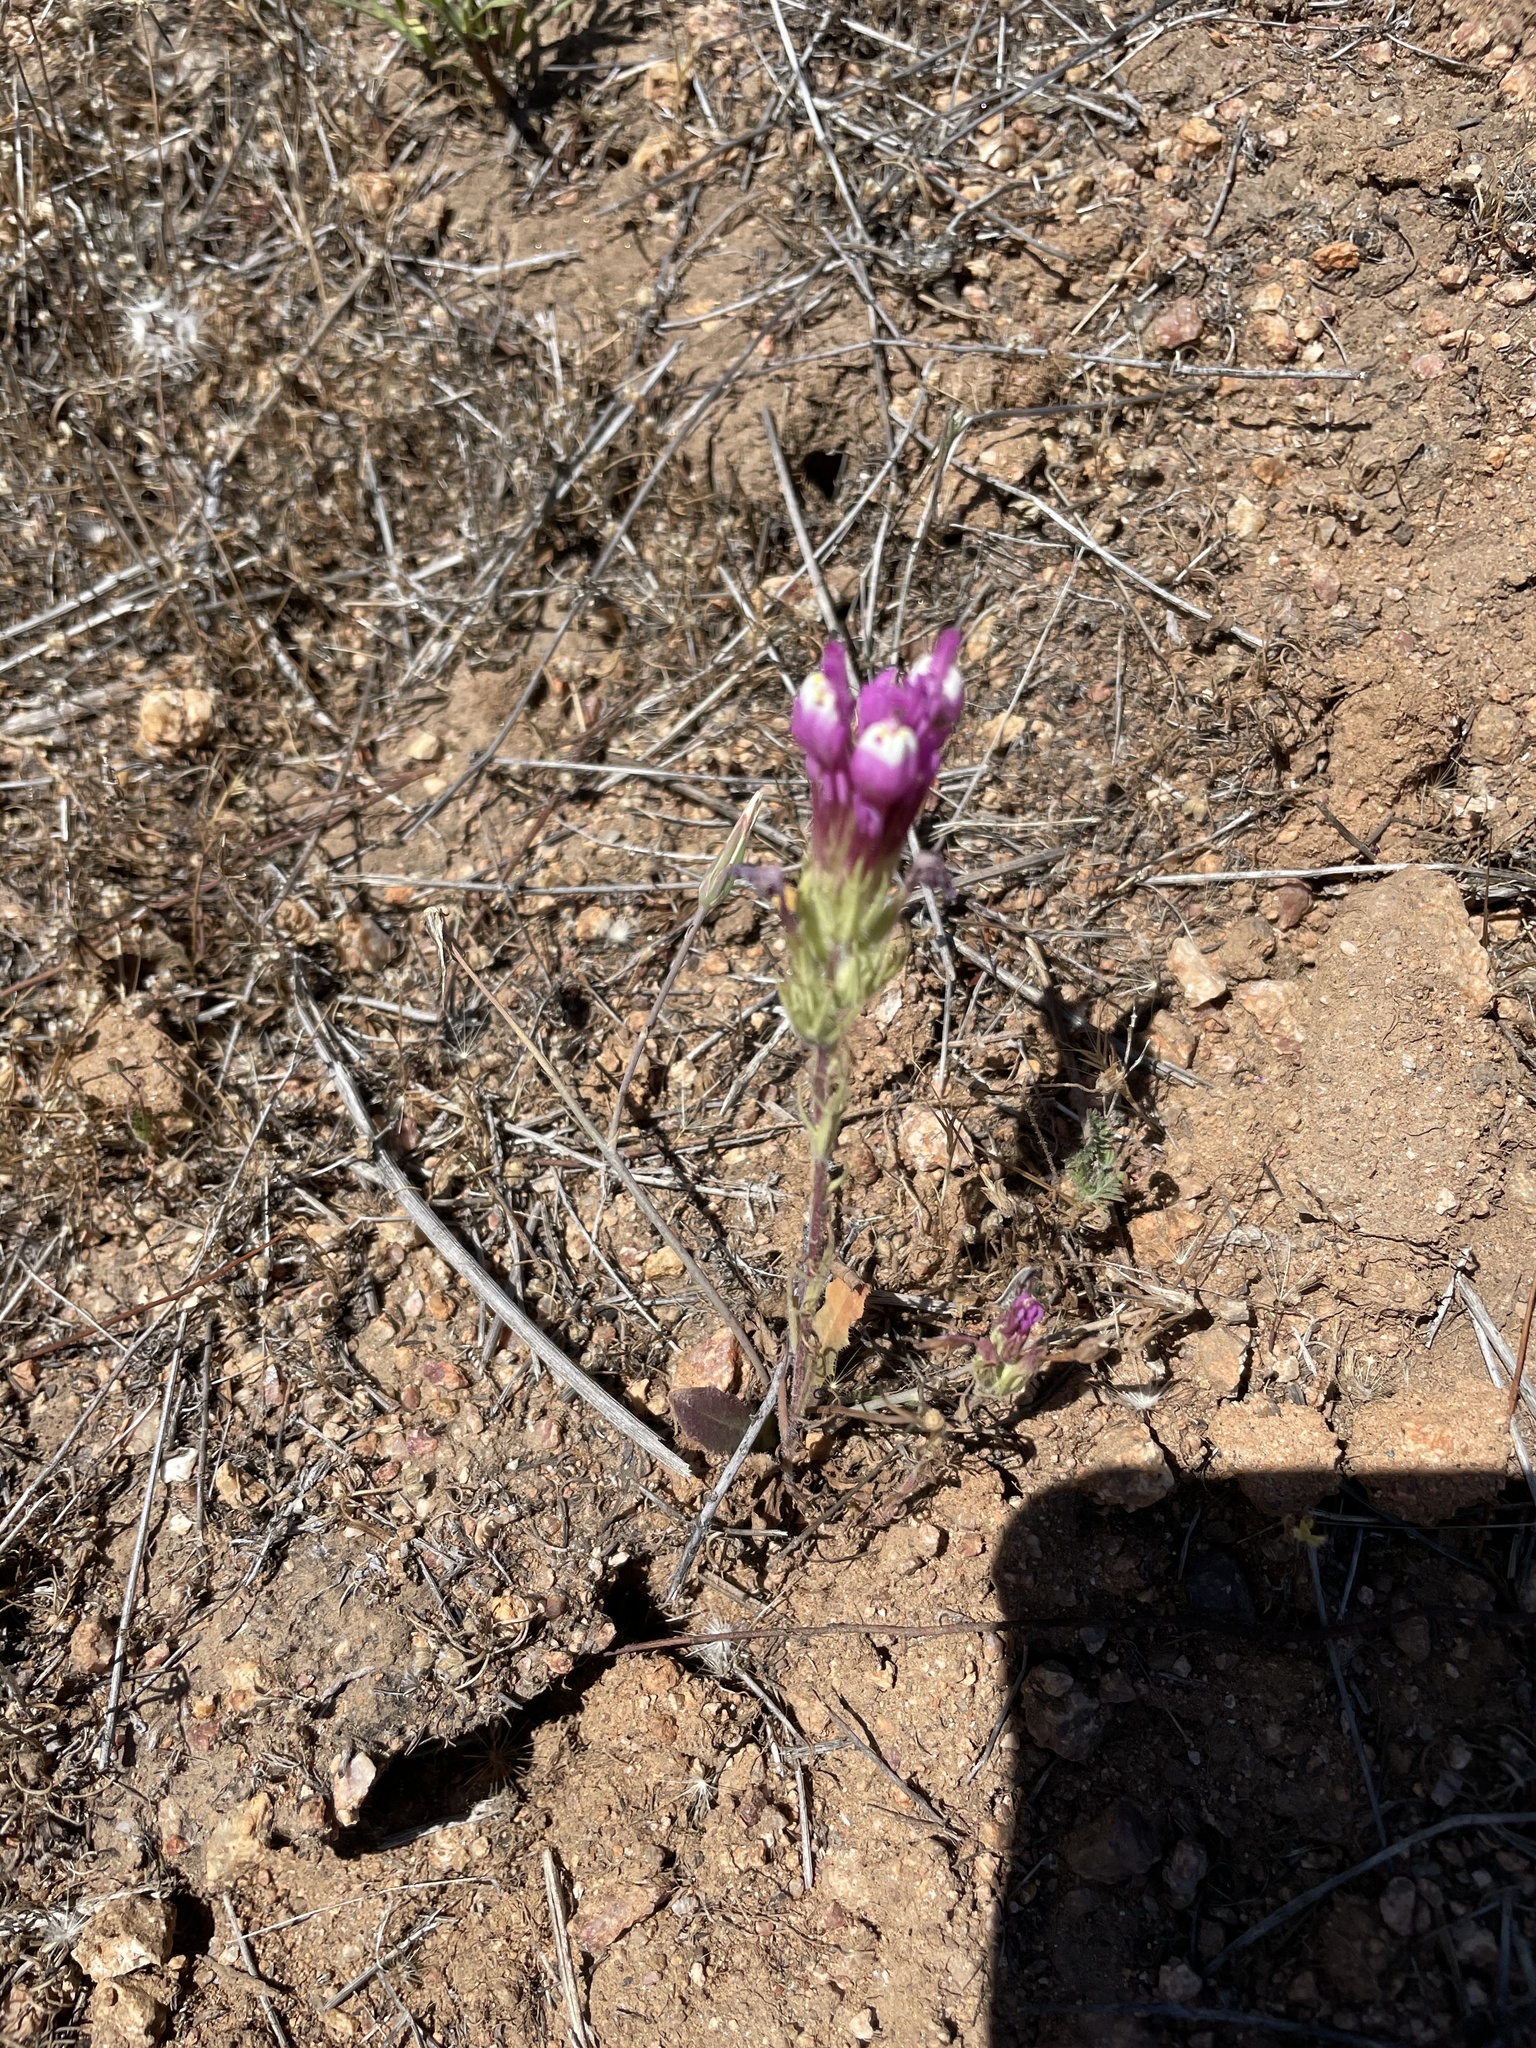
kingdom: Plantae
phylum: Tracheophyta
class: Magnoliopsida
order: Lamiales
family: Orobanchaceae
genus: Castilleja
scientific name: Castilleja exserta
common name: Purple owl-clover
